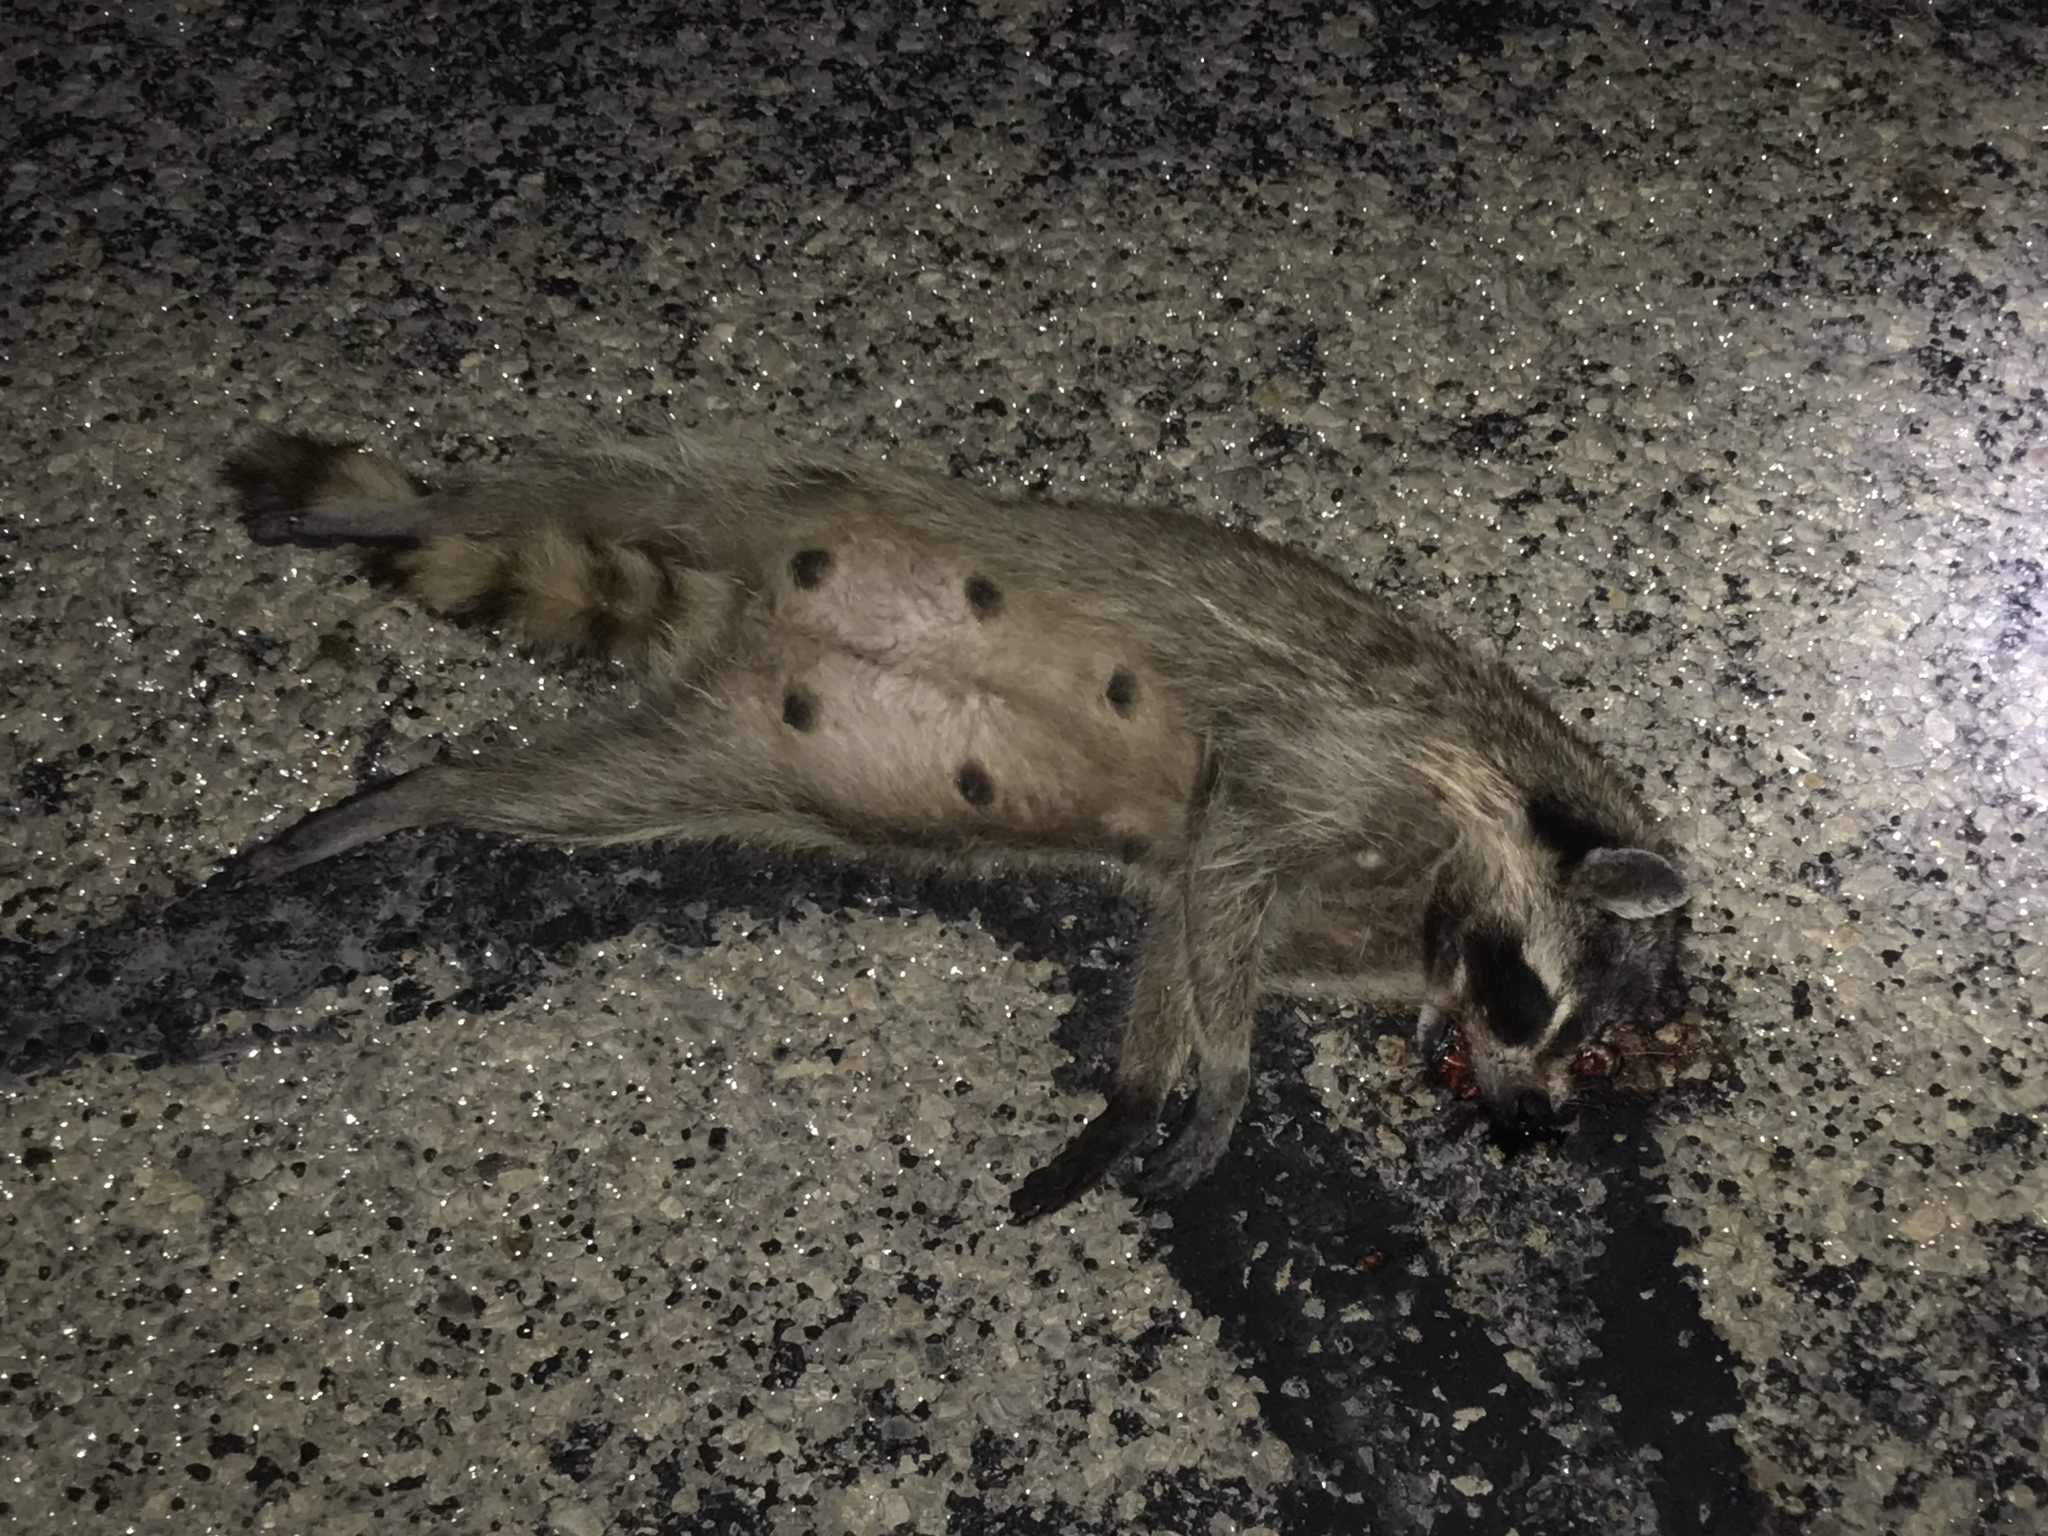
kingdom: Animalia
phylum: Chordata
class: Mammalia
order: Carnivora
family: Procyonidae
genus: Procyon
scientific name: Procyon lotor
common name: Raccoon
